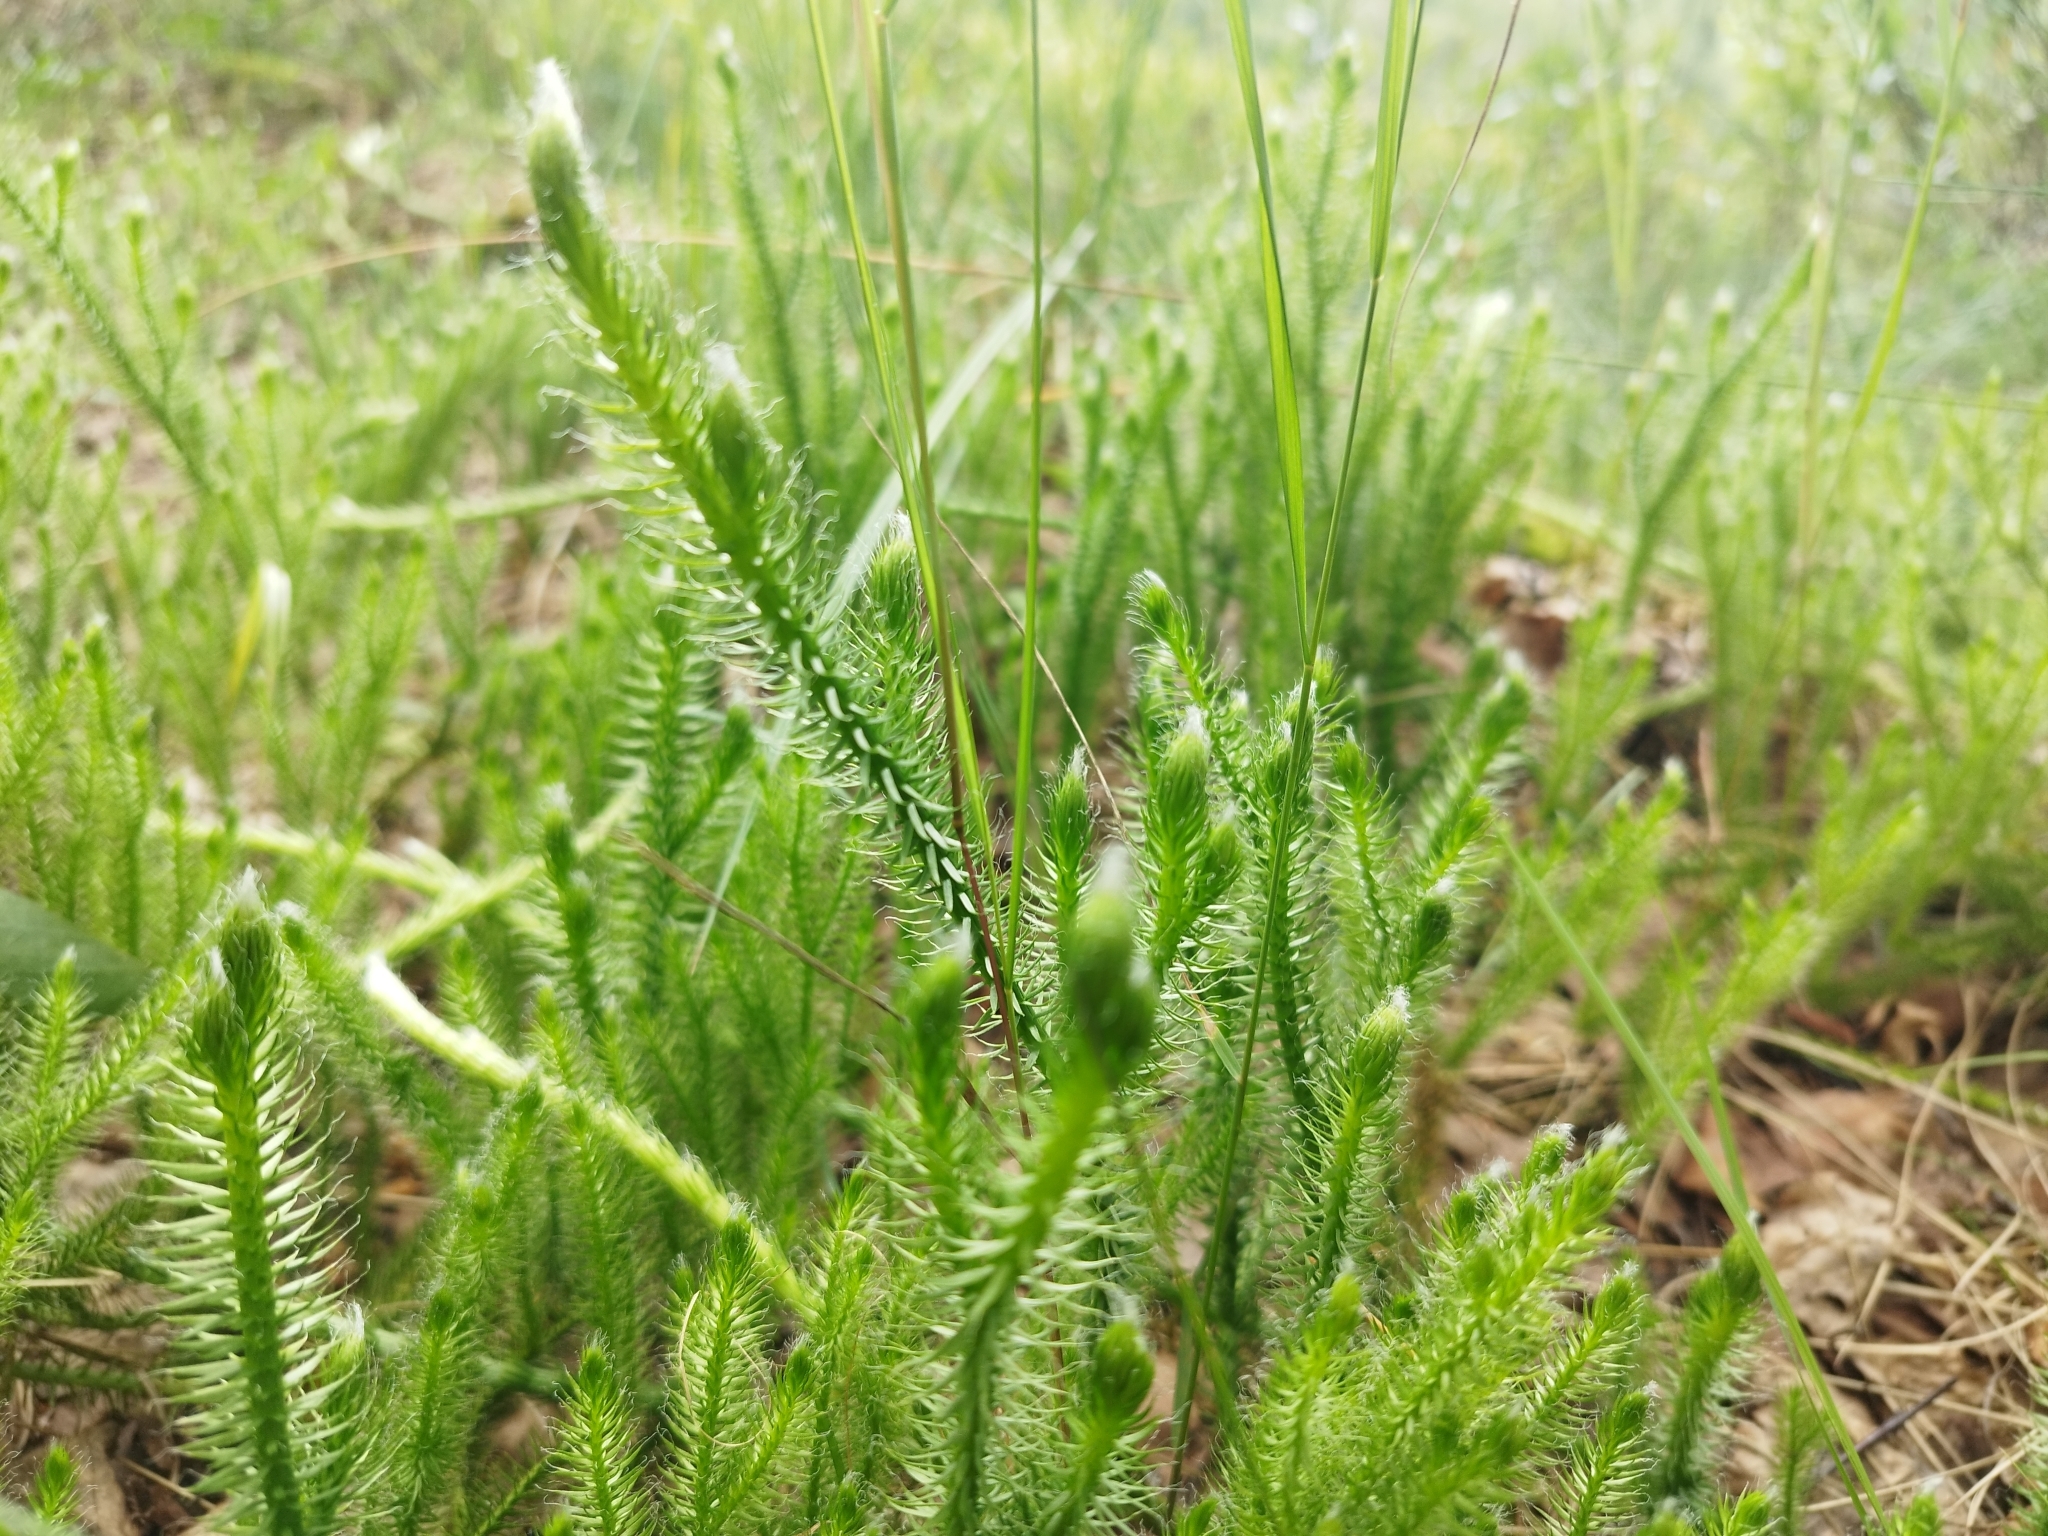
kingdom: Plantae
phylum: Tracheophyta
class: Lycopodiopsida
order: Lycopodiales
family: Lycopodiaceae
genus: Lycopodium
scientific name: Lycopodium clavatum
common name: Stag's-horn clubmoss
